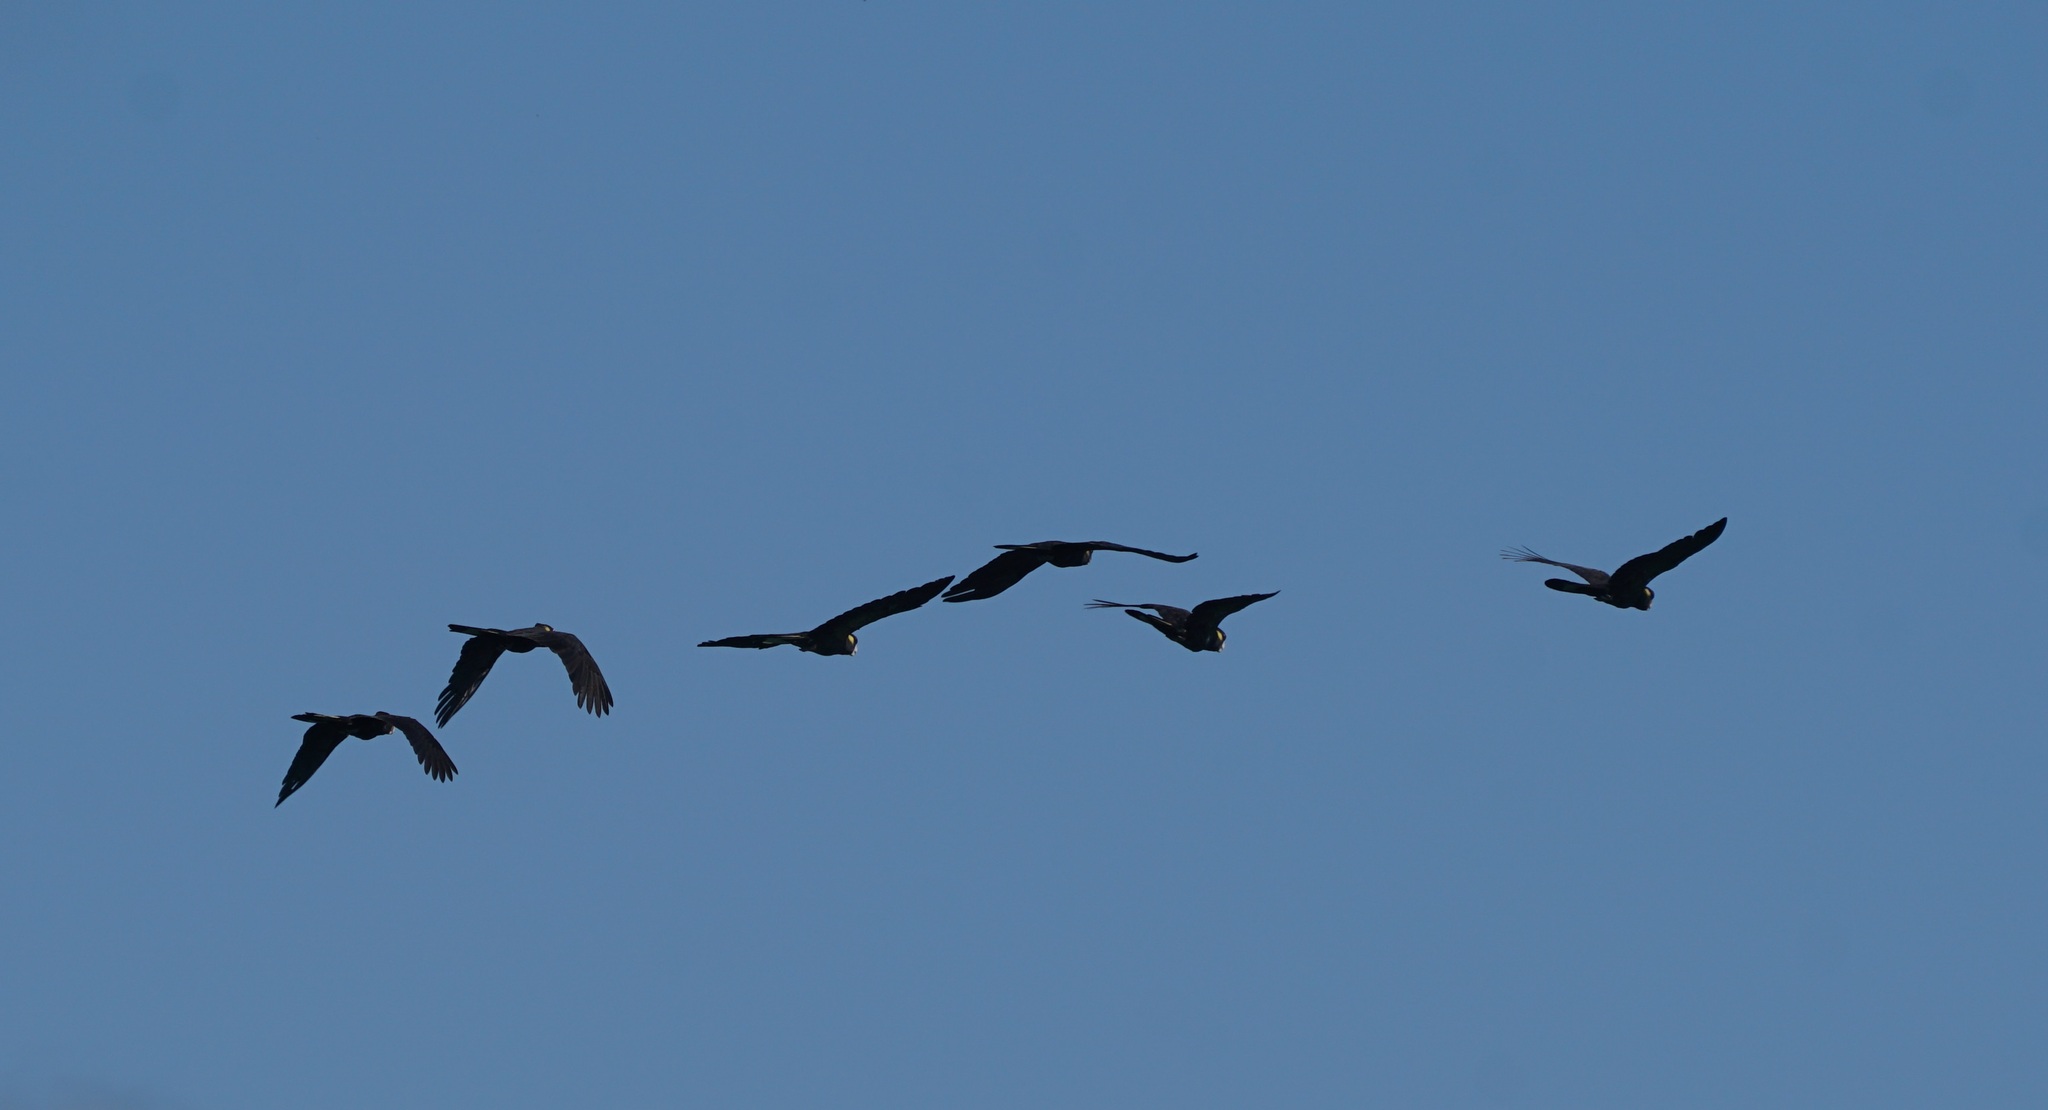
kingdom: Animalia
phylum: Chordata
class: Aves
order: Psittaciformes
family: Cacatuidae
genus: Zanda
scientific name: Zanda funerea
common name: Yellow-tailed black-cockatoo
